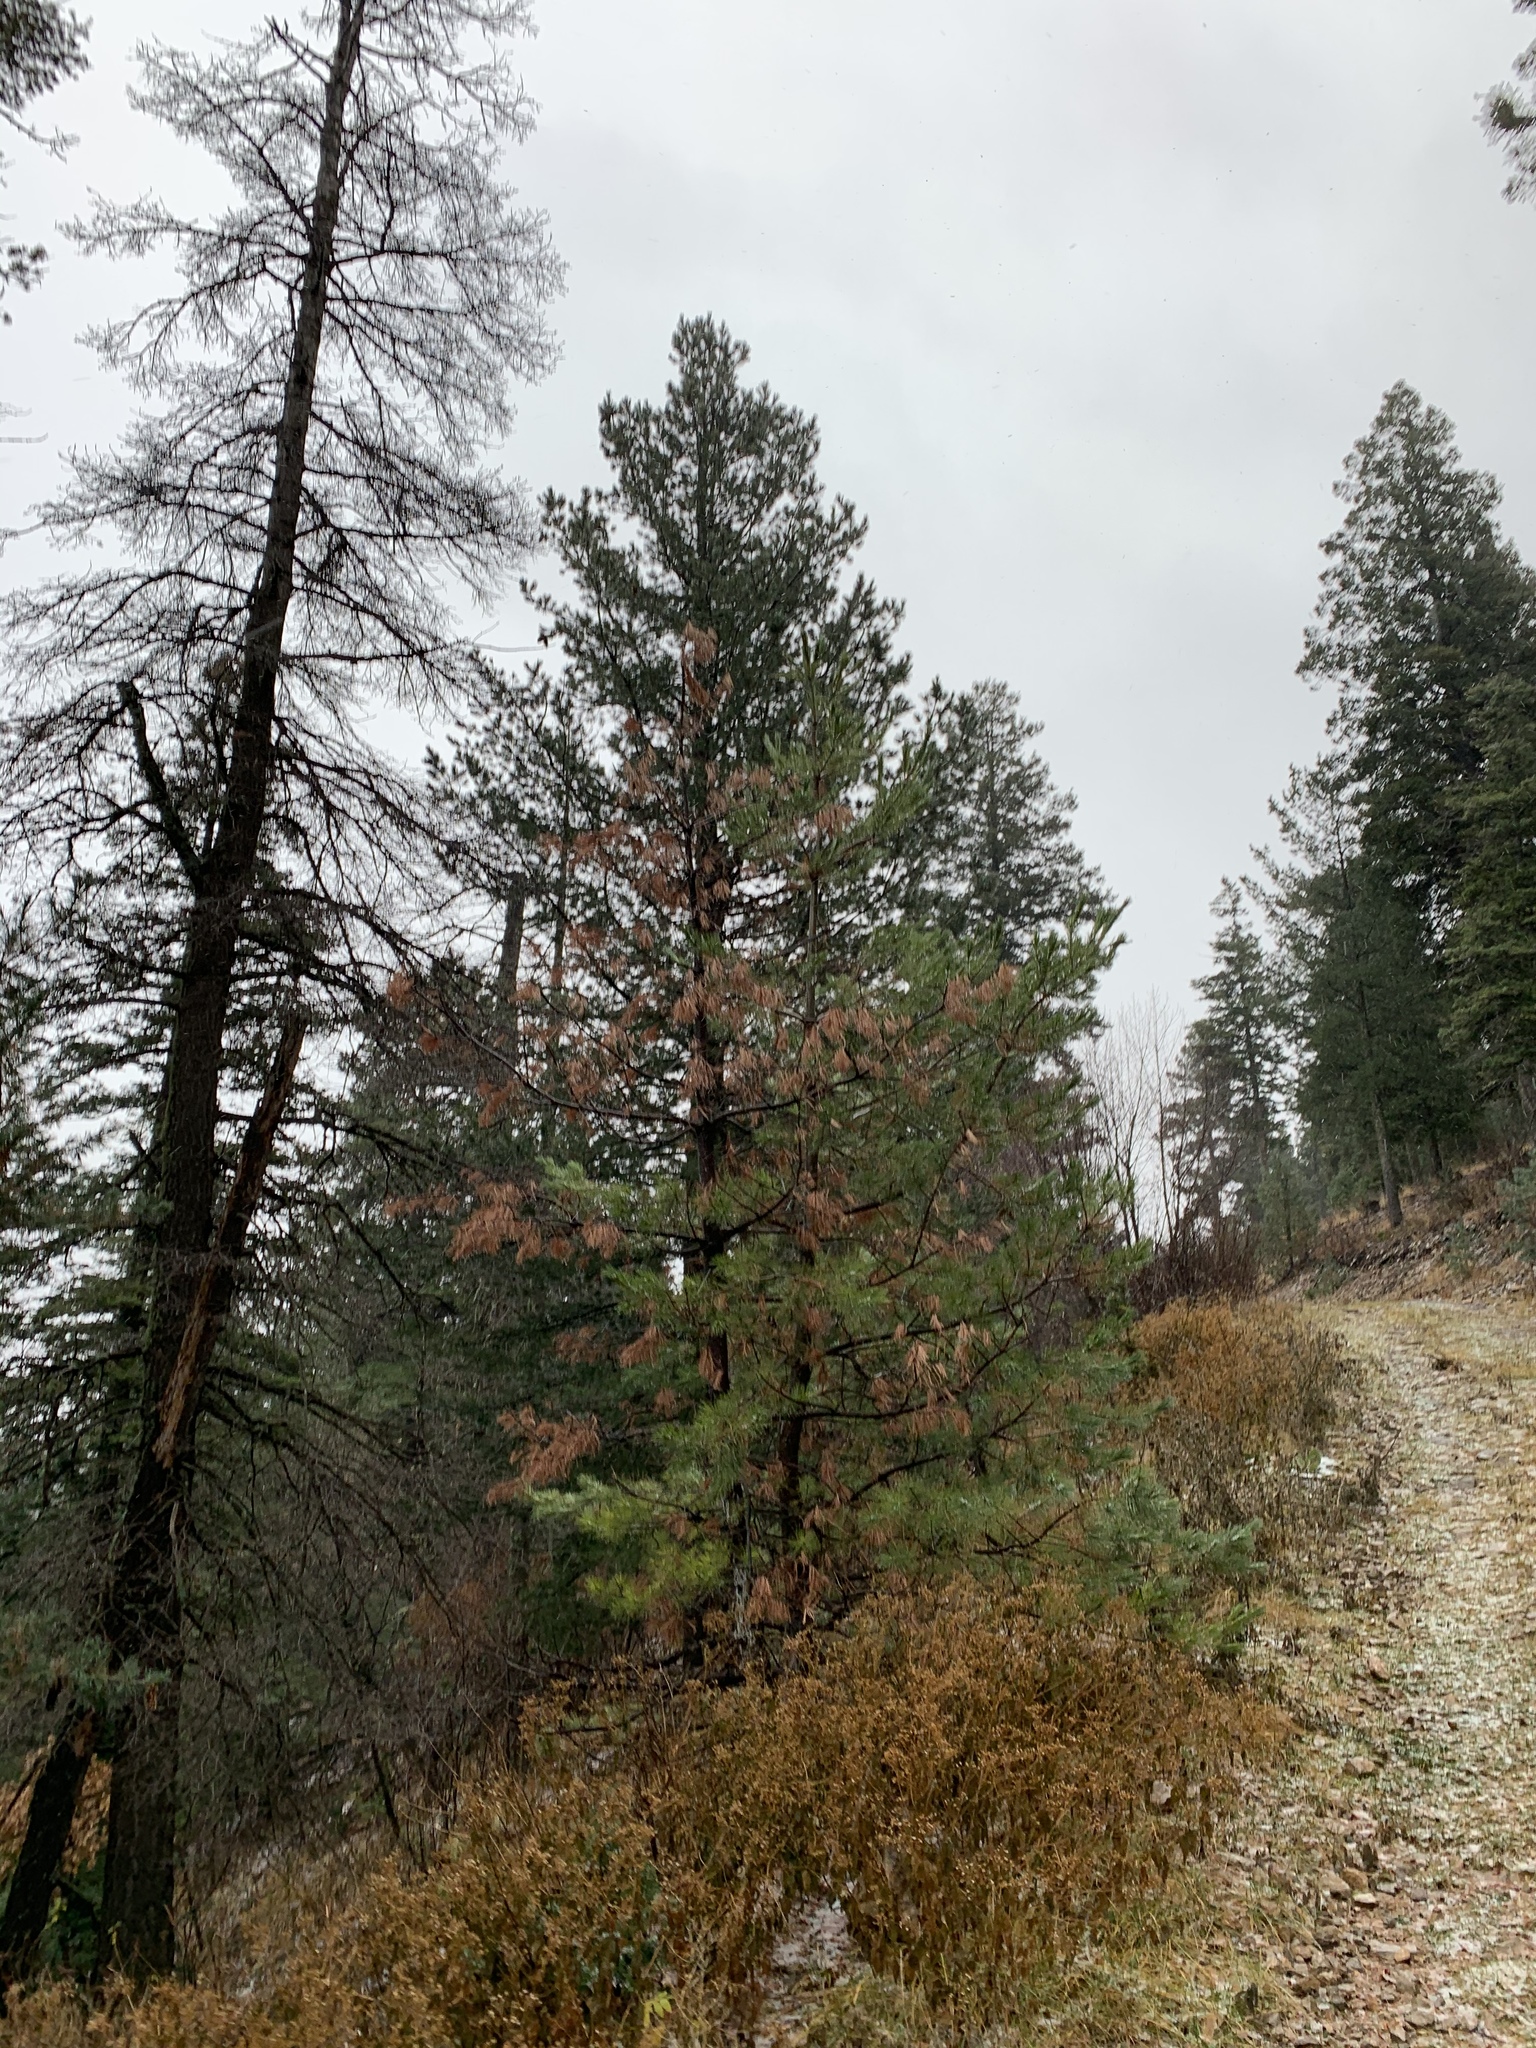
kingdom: Plantae
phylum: Tracheophyta
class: Pinopsida
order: Pinales
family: Pinaceae
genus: Pinus
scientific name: Pinus strobiformis
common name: Southwestern white pine
